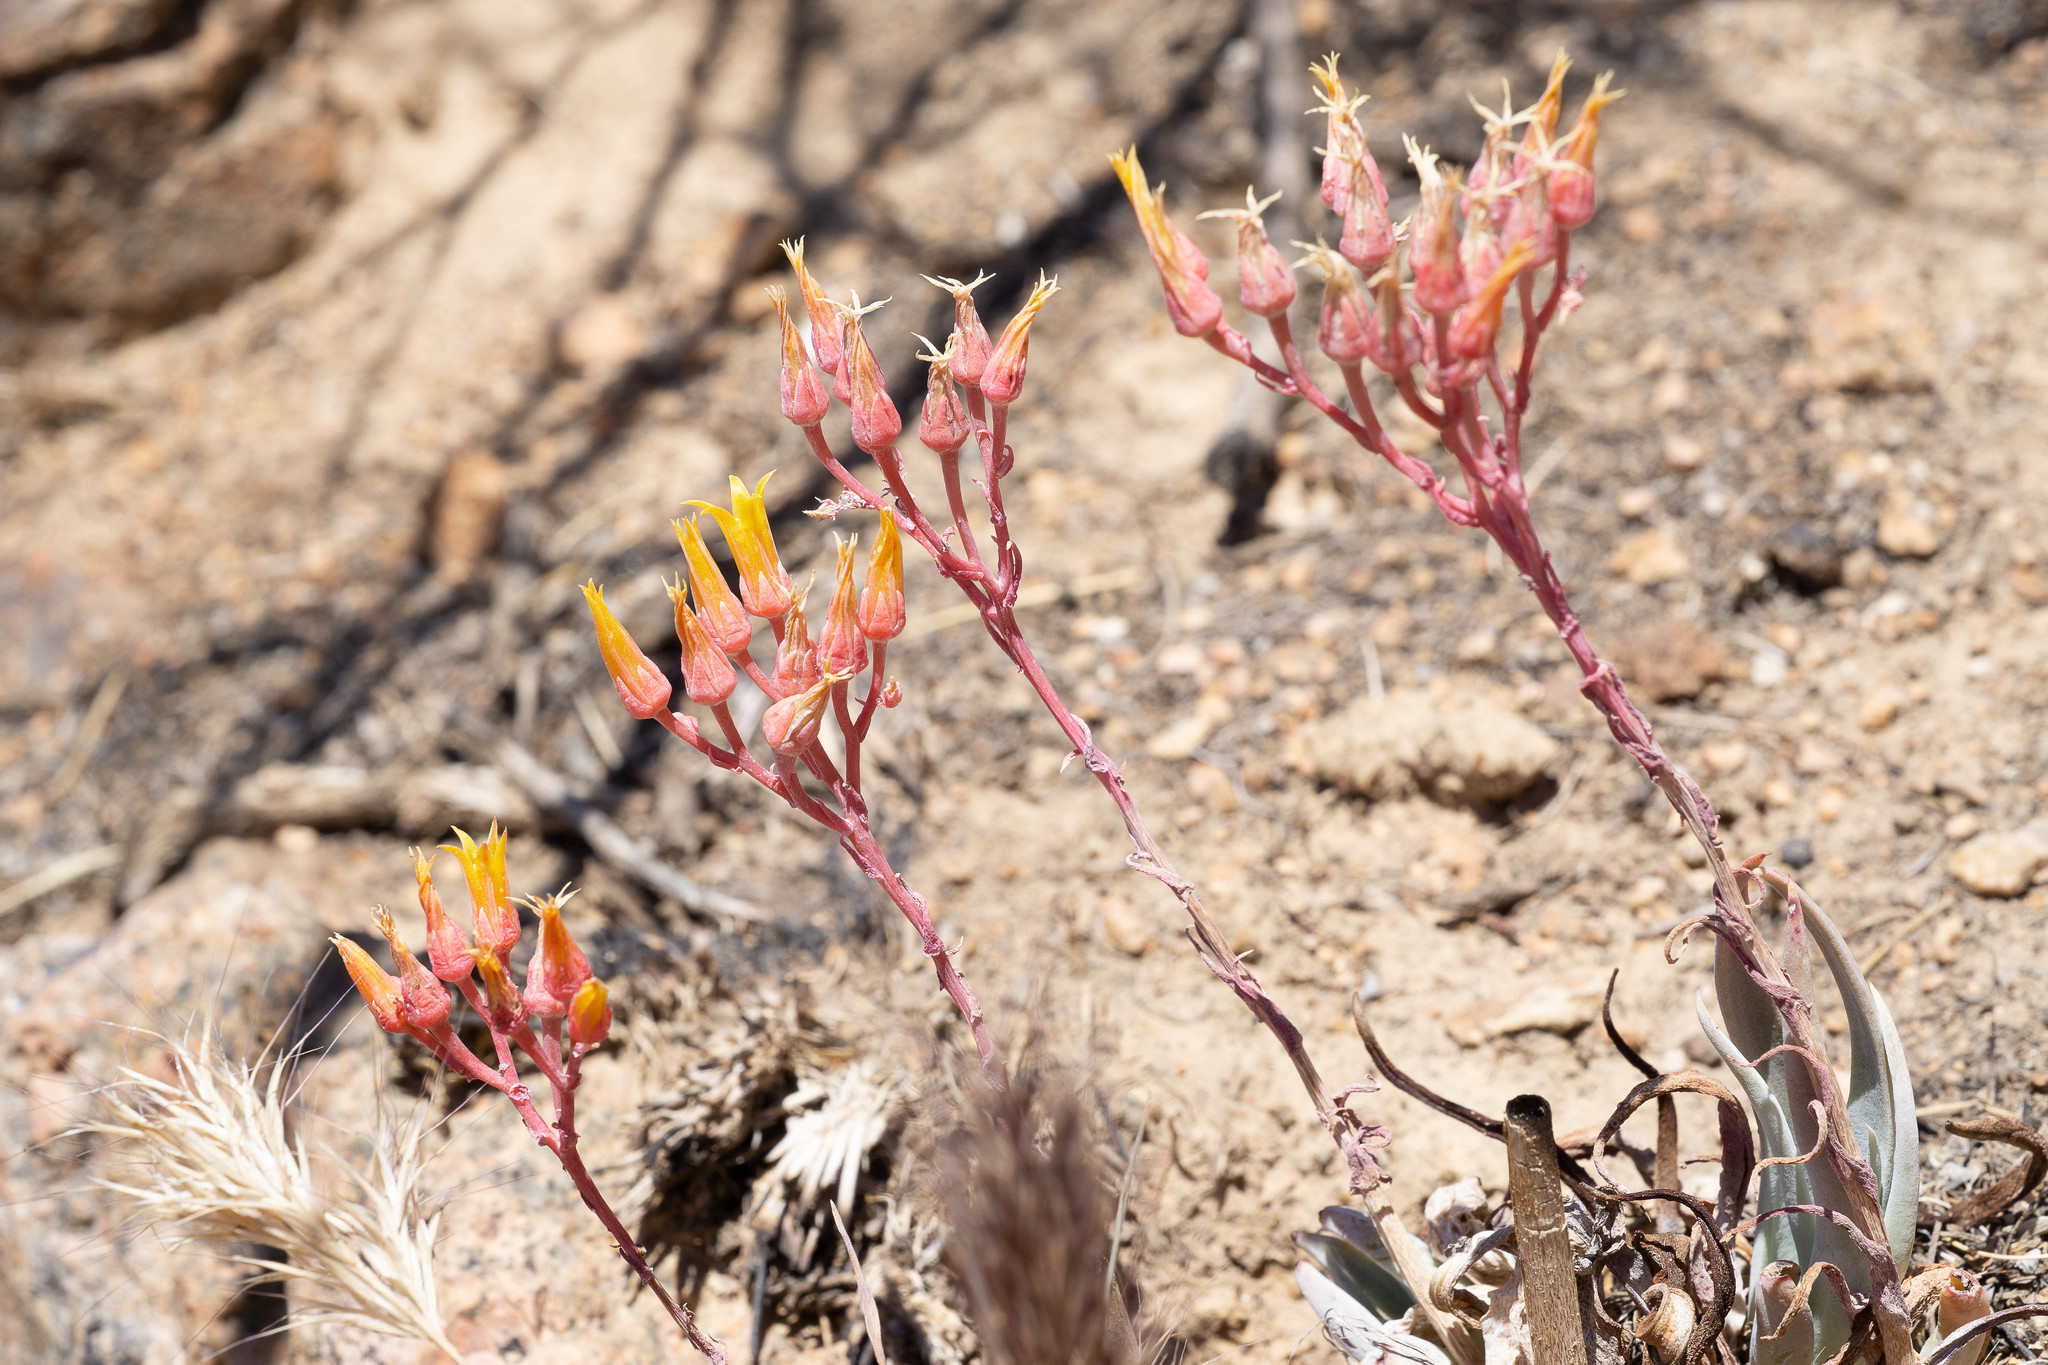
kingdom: Plantae
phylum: Tracheophyta
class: Magnoliopsida
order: Saxifragales
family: Crassulaceae
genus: Dudleya
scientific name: Dudleya collomiae
